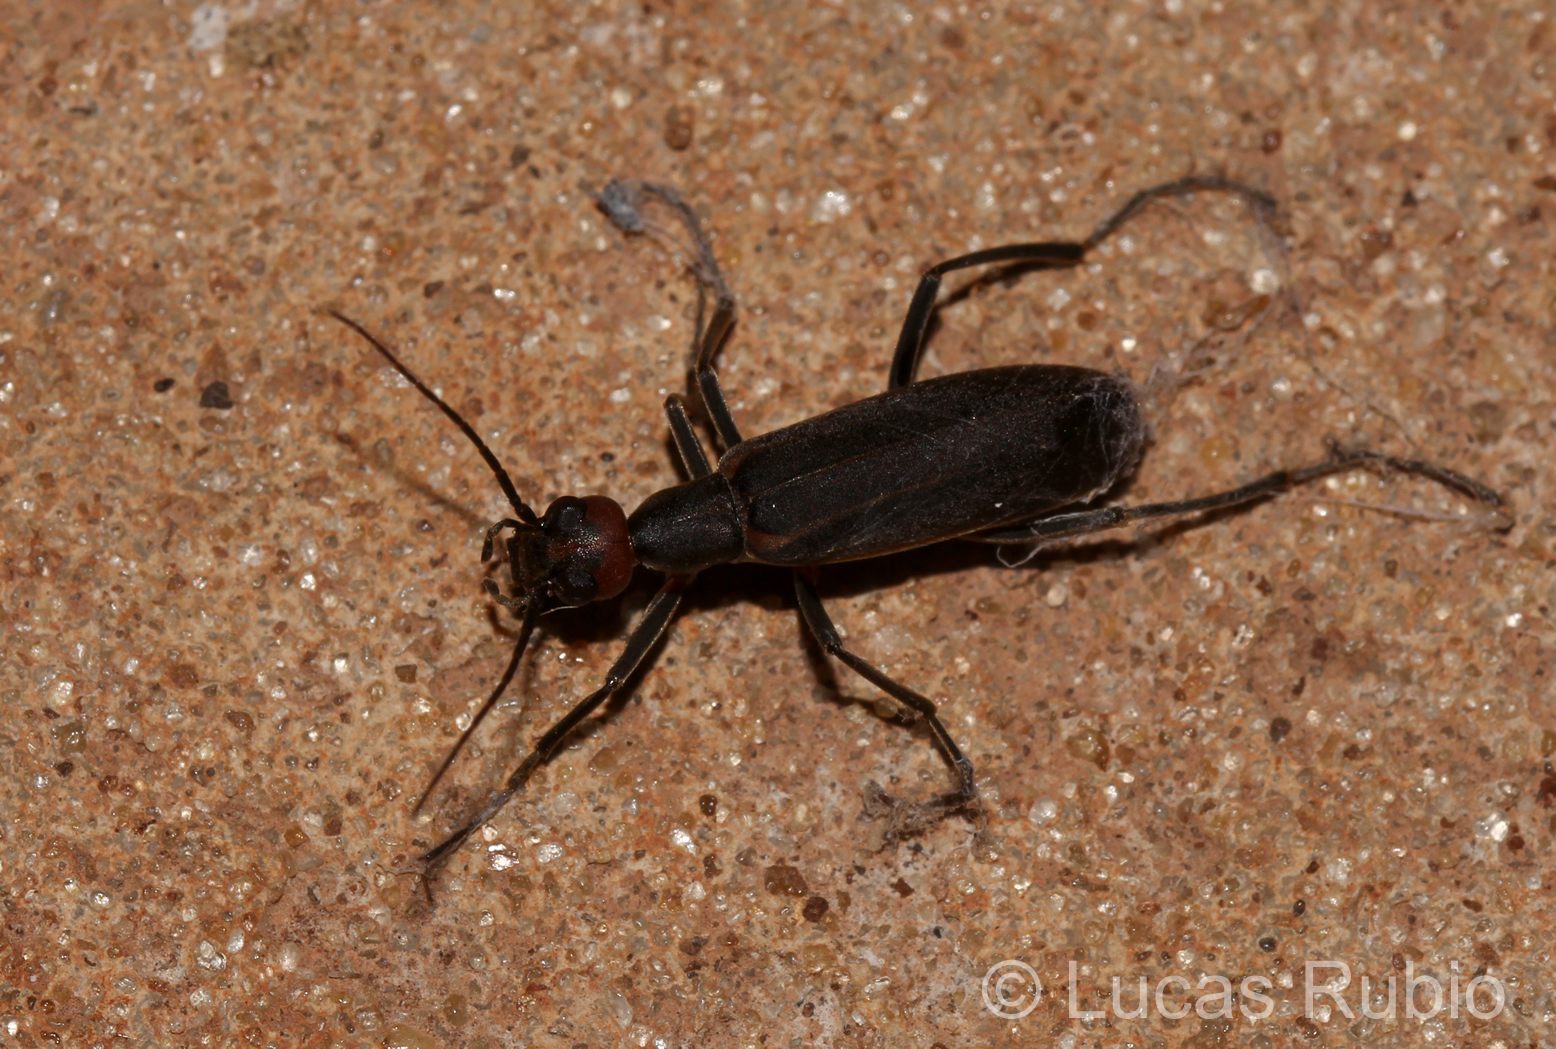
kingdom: Animalia
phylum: Arthropoda
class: Insecta
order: Coleoptera
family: Meloidae
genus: Epicauta
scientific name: Epicauta grammica
